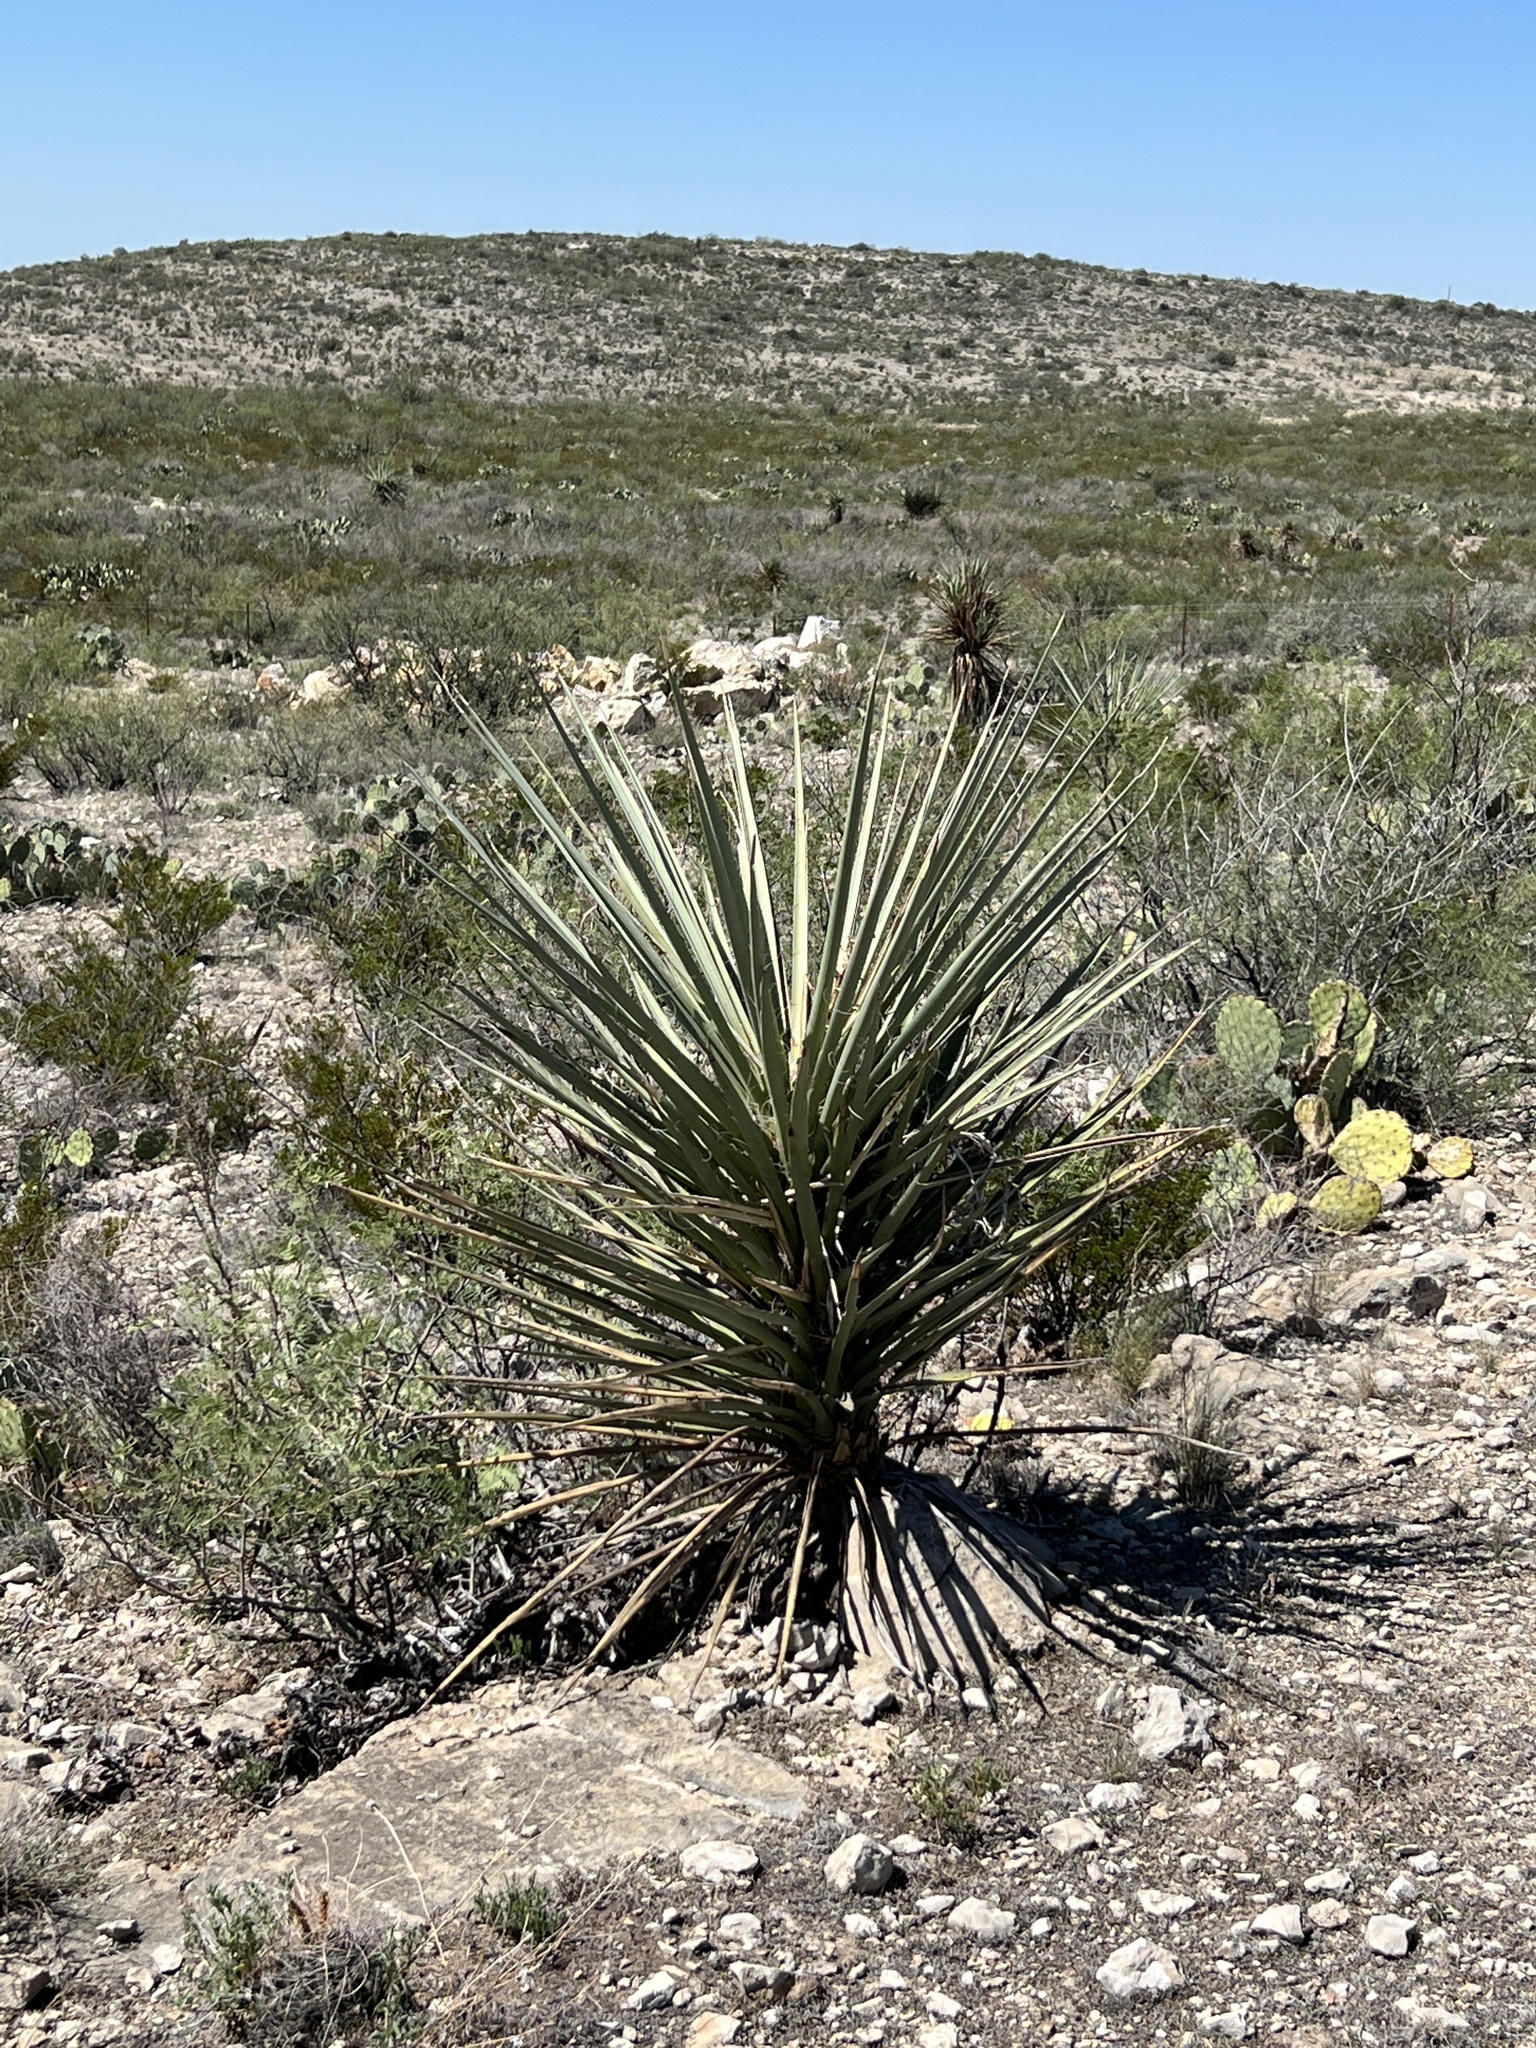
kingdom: Plantae
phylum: Tracheophyta
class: Liliopsida
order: Asparagales
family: Asparagaceae
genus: Yucca
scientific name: Yucca treculiana
